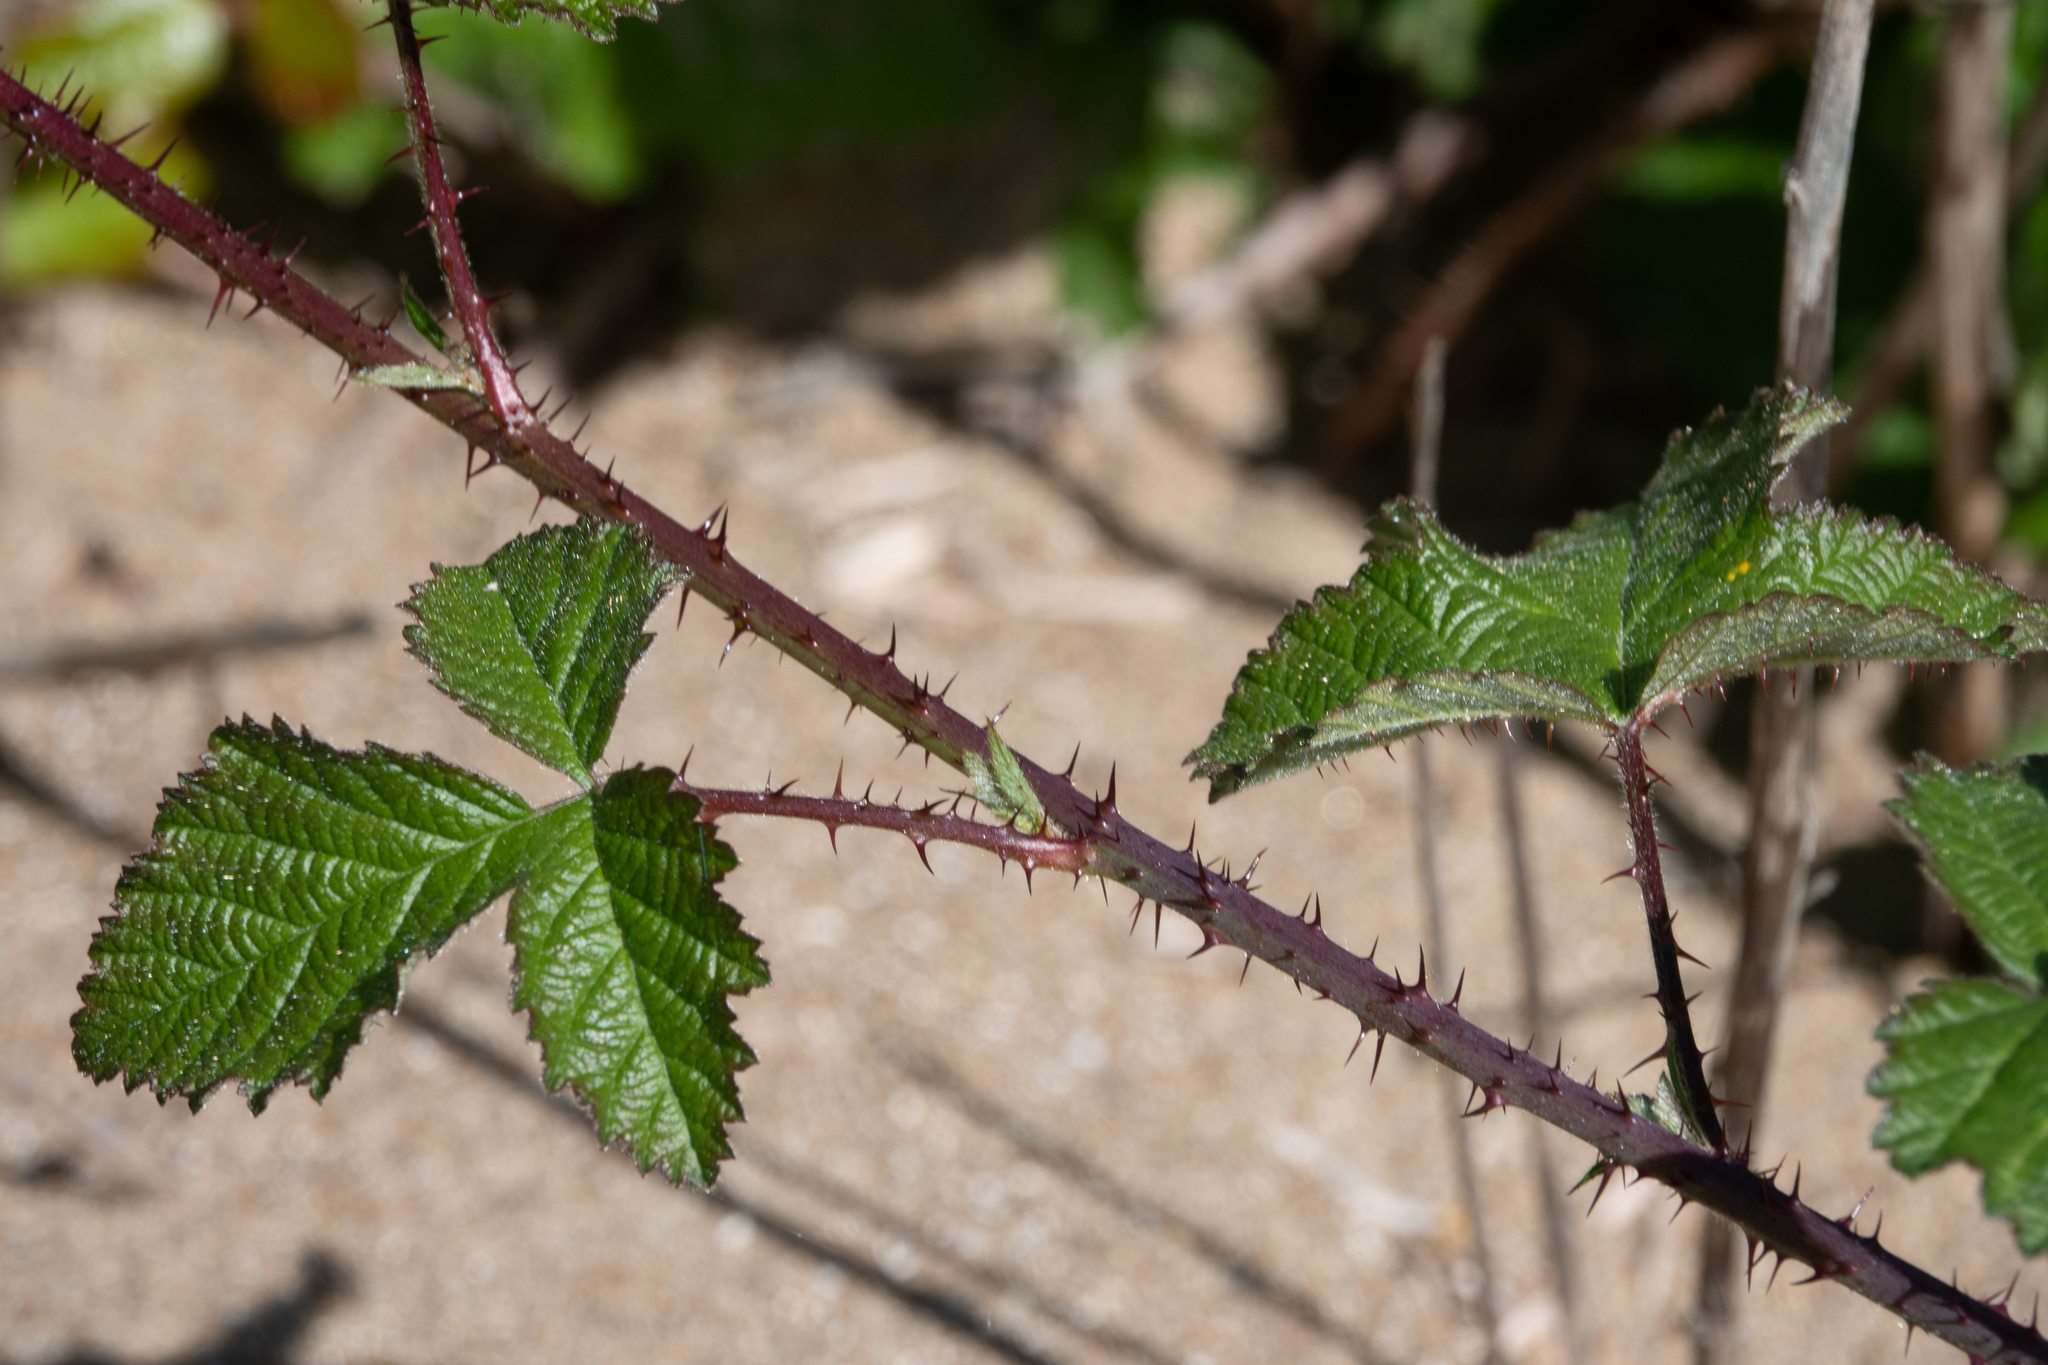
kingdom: Plantae
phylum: Tracheophyta
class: Magnoliopsida
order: Rosales
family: Rosaceae
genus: Rubus
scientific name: Rubus ursinus
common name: Pacific blackberry
